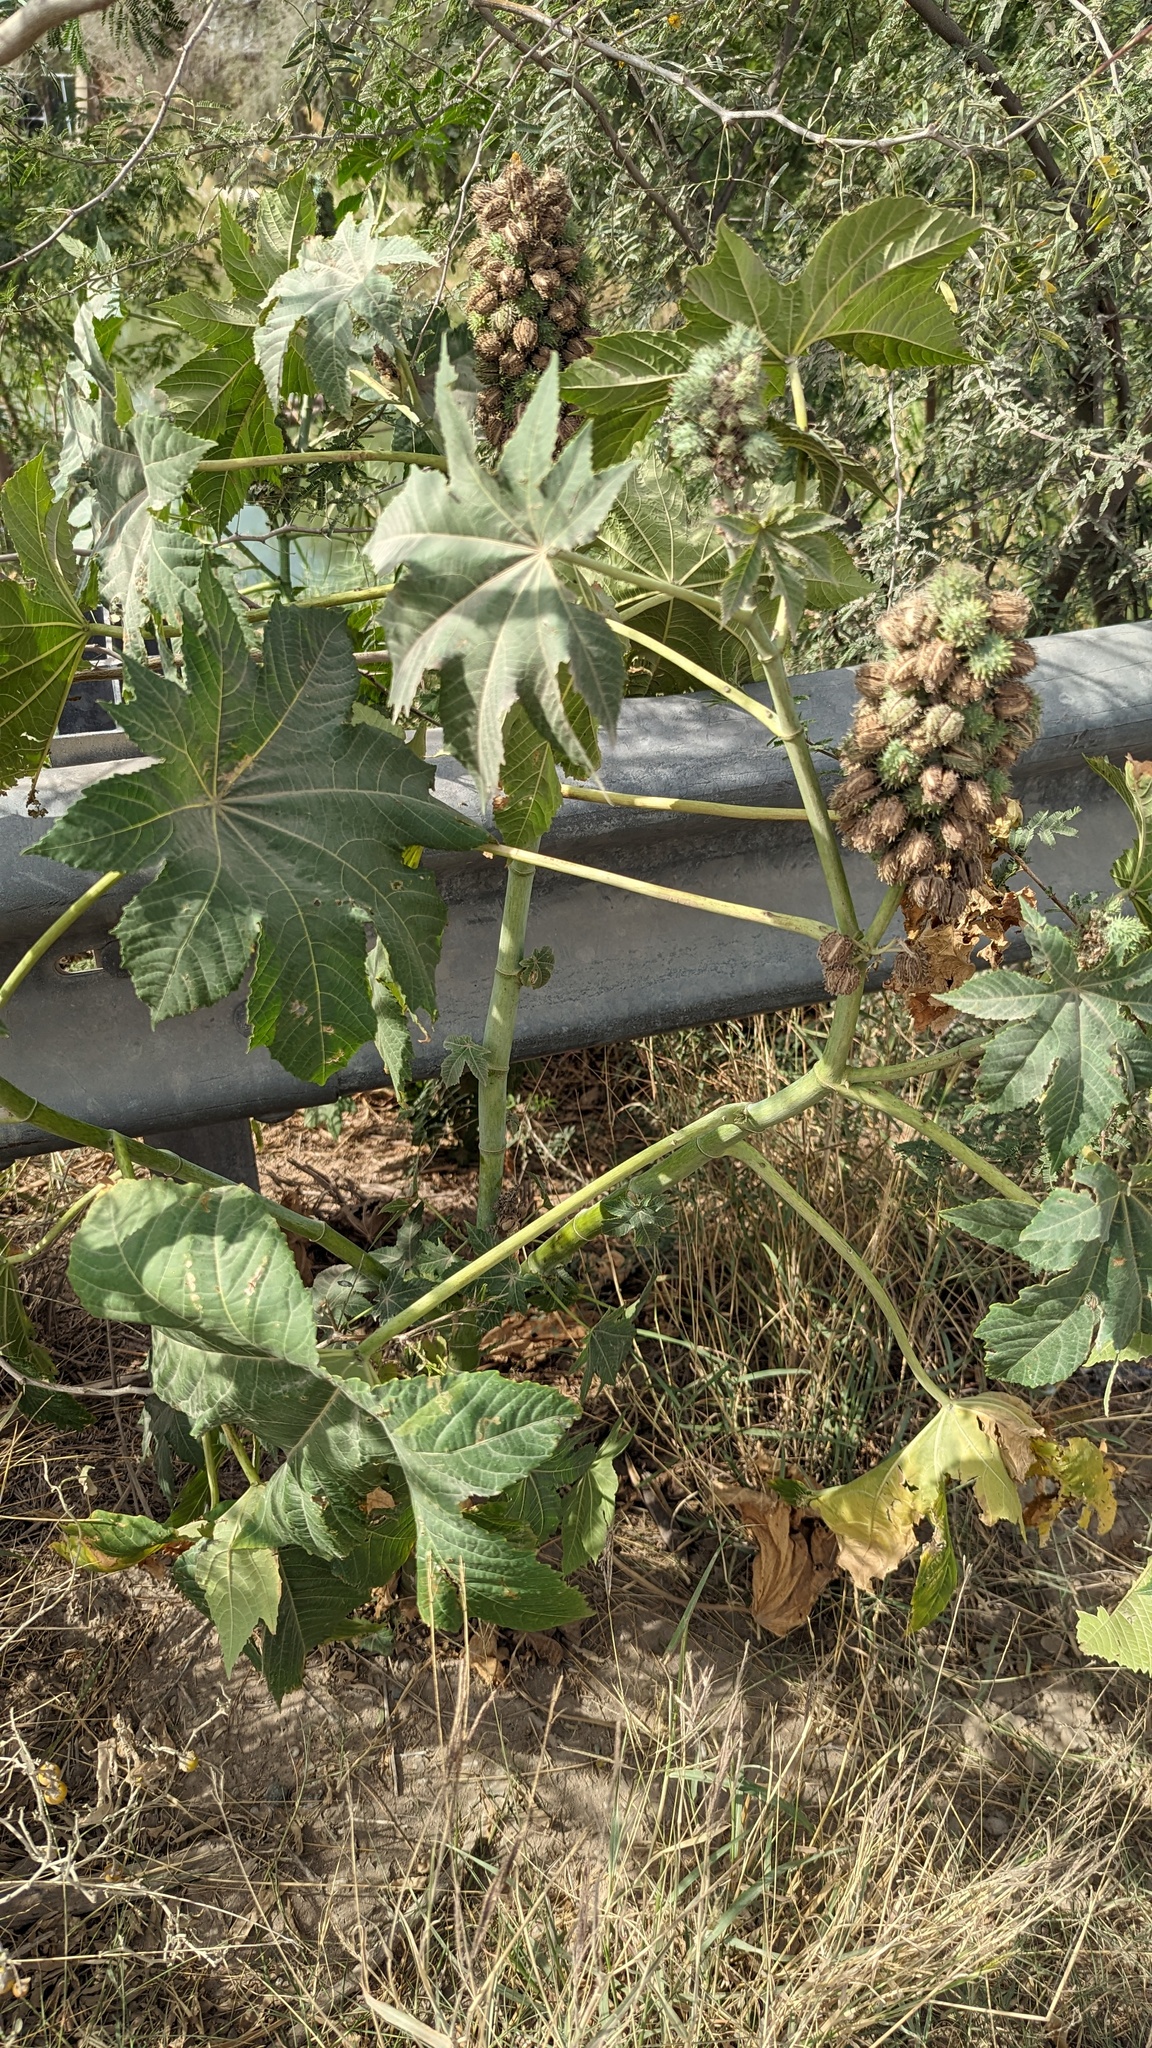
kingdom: Plantae
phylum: Tracheophyta
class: Magnoliopsida
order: Malpighiales
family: Euphorbiaceae
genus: Ricinus
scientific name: Ricinus communis
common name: Castor-oil-plant
